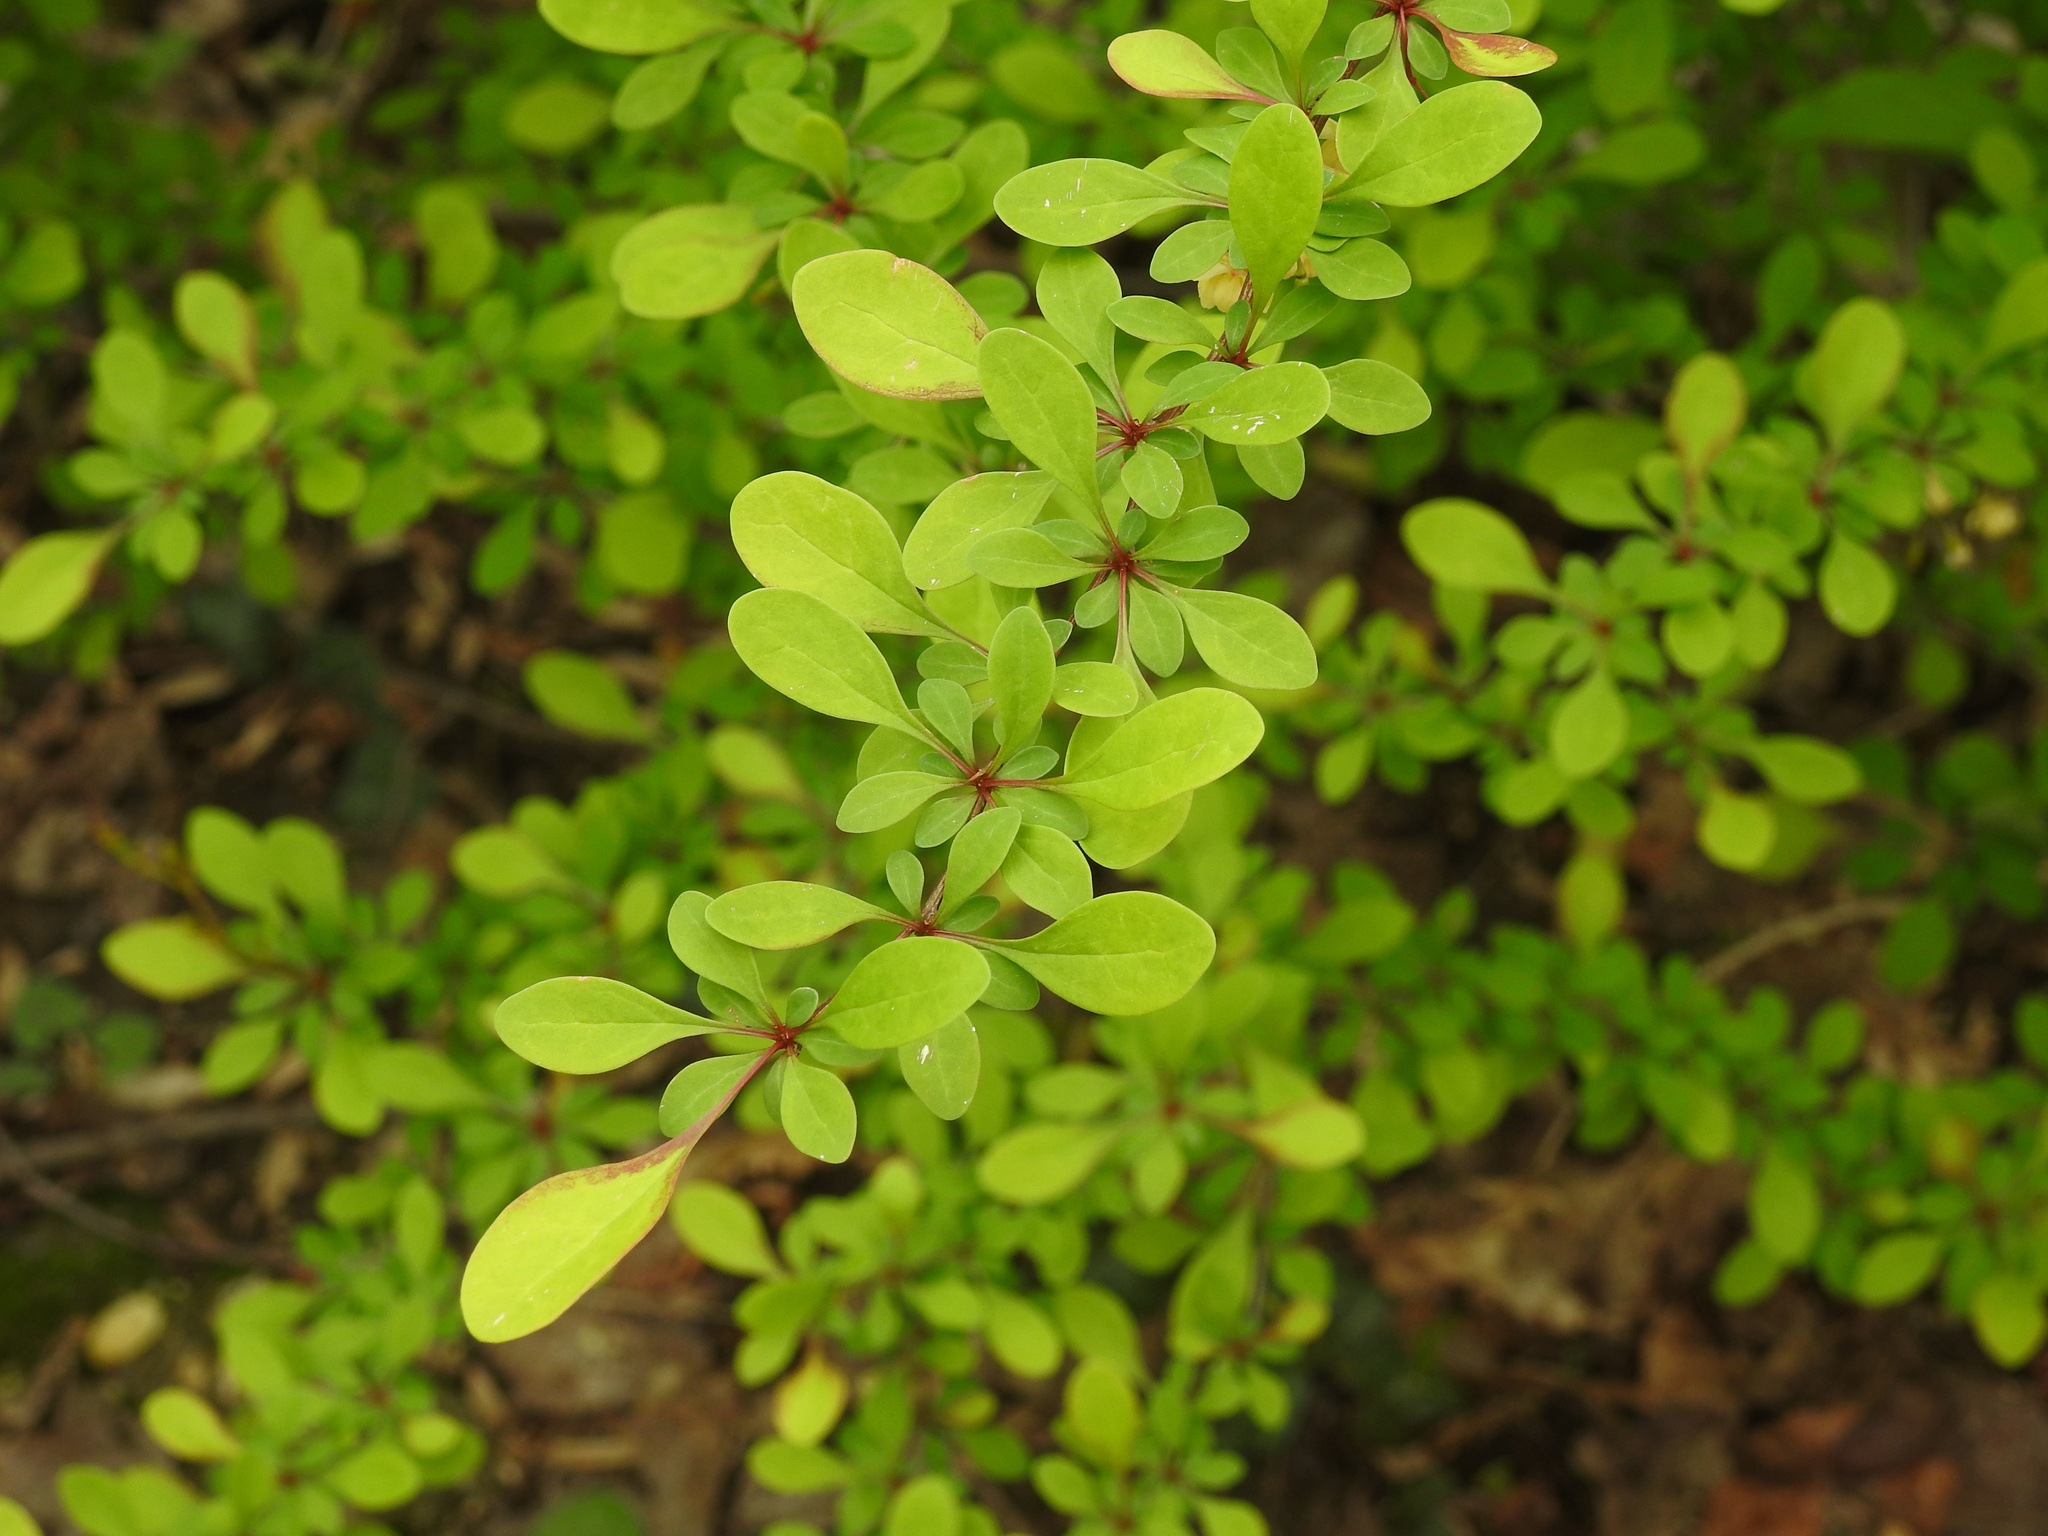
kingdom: Plantae
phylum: Tracheophyta
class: Magnoliopsida
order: Ranunculales
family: Berberidaceae
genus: Berberis
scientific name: Berberis thunbergii
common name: Japanese barberry
